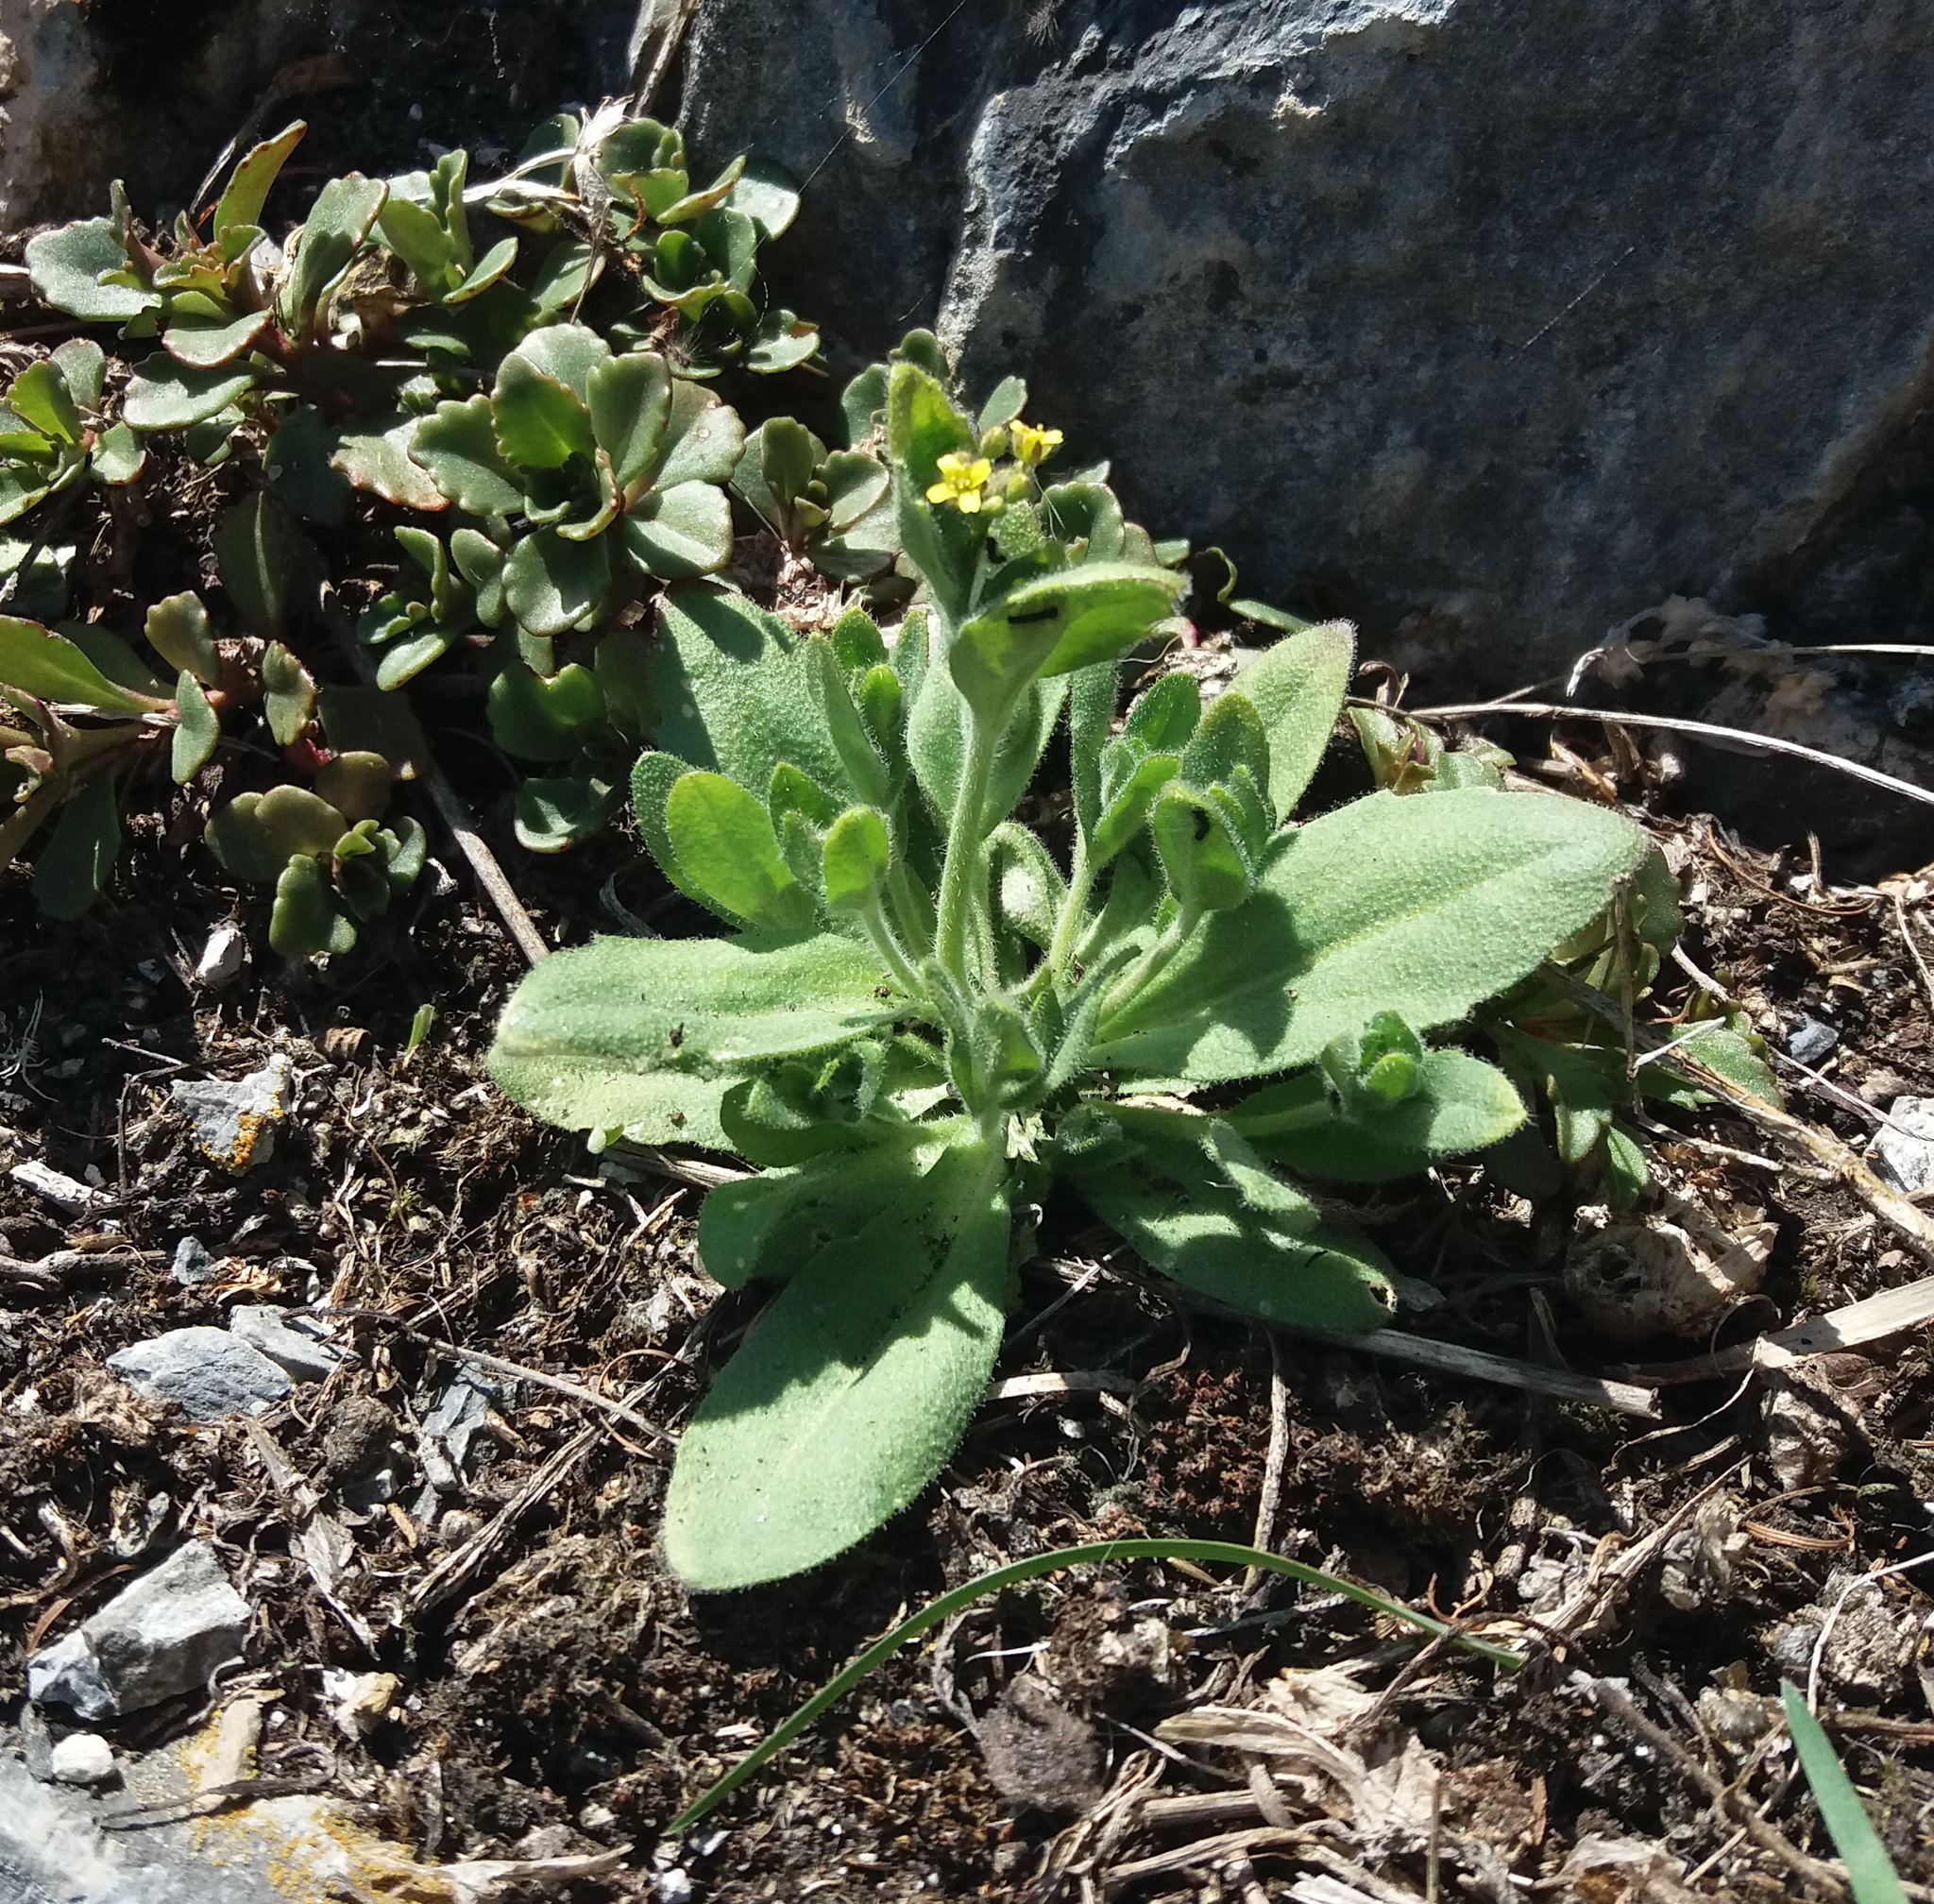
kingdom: Plantae
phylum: Tracheophyta
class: Magnoliopsida
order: Brassicales
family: Brassicaceae
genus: Draba
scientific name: Draba nemorosa
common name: Wood whitlow-grass
